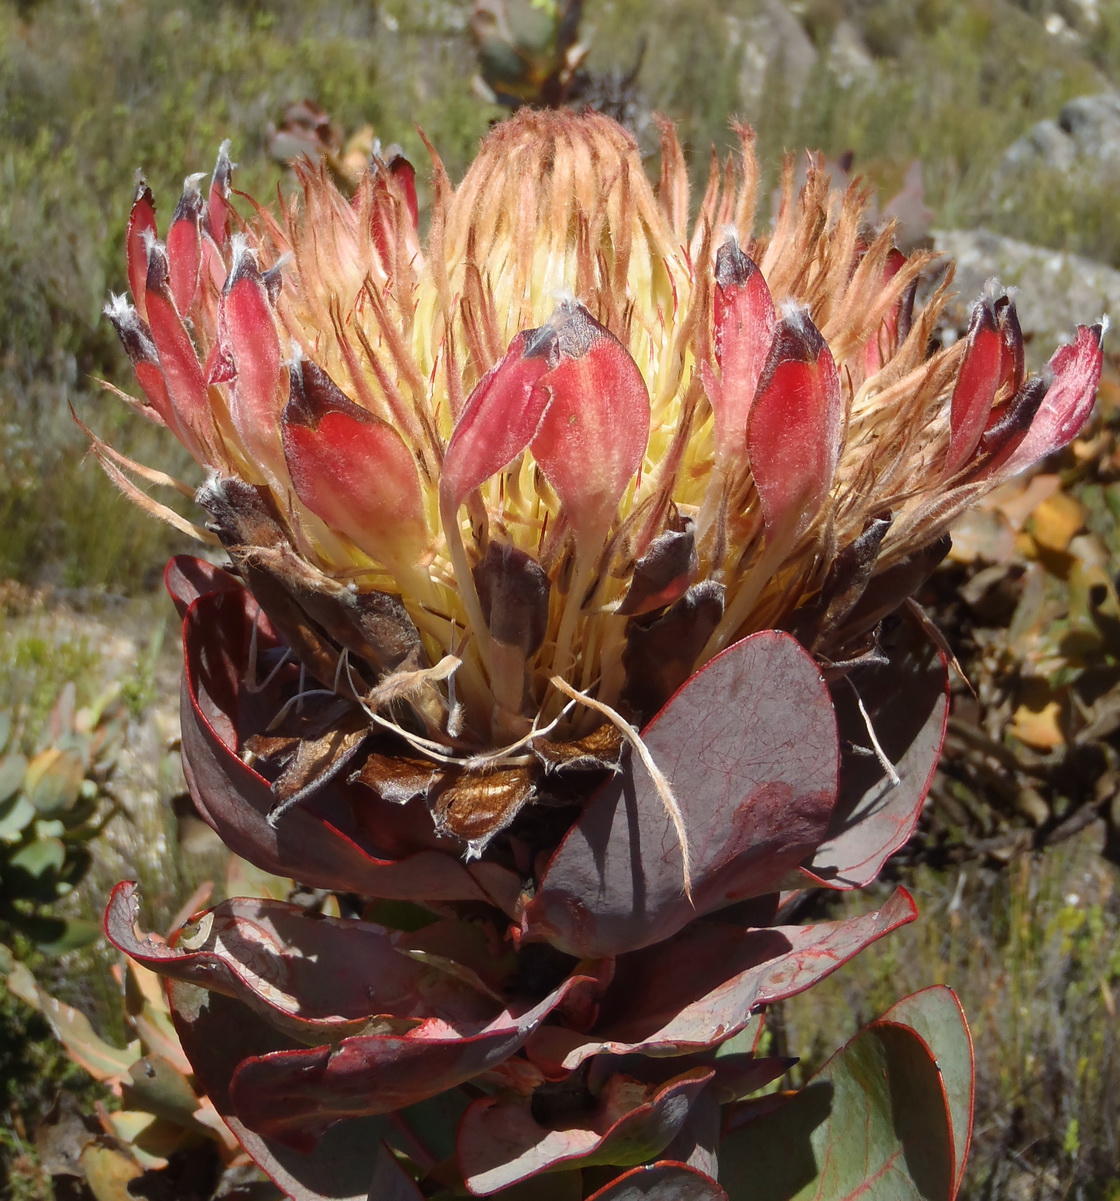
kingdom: Plantae
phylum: Tracheophyta
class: Magnoliopsida
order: Proteales
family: Proteaceae
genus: Protea
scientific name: Protea eximia
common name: Broad-leaved sugarbush
